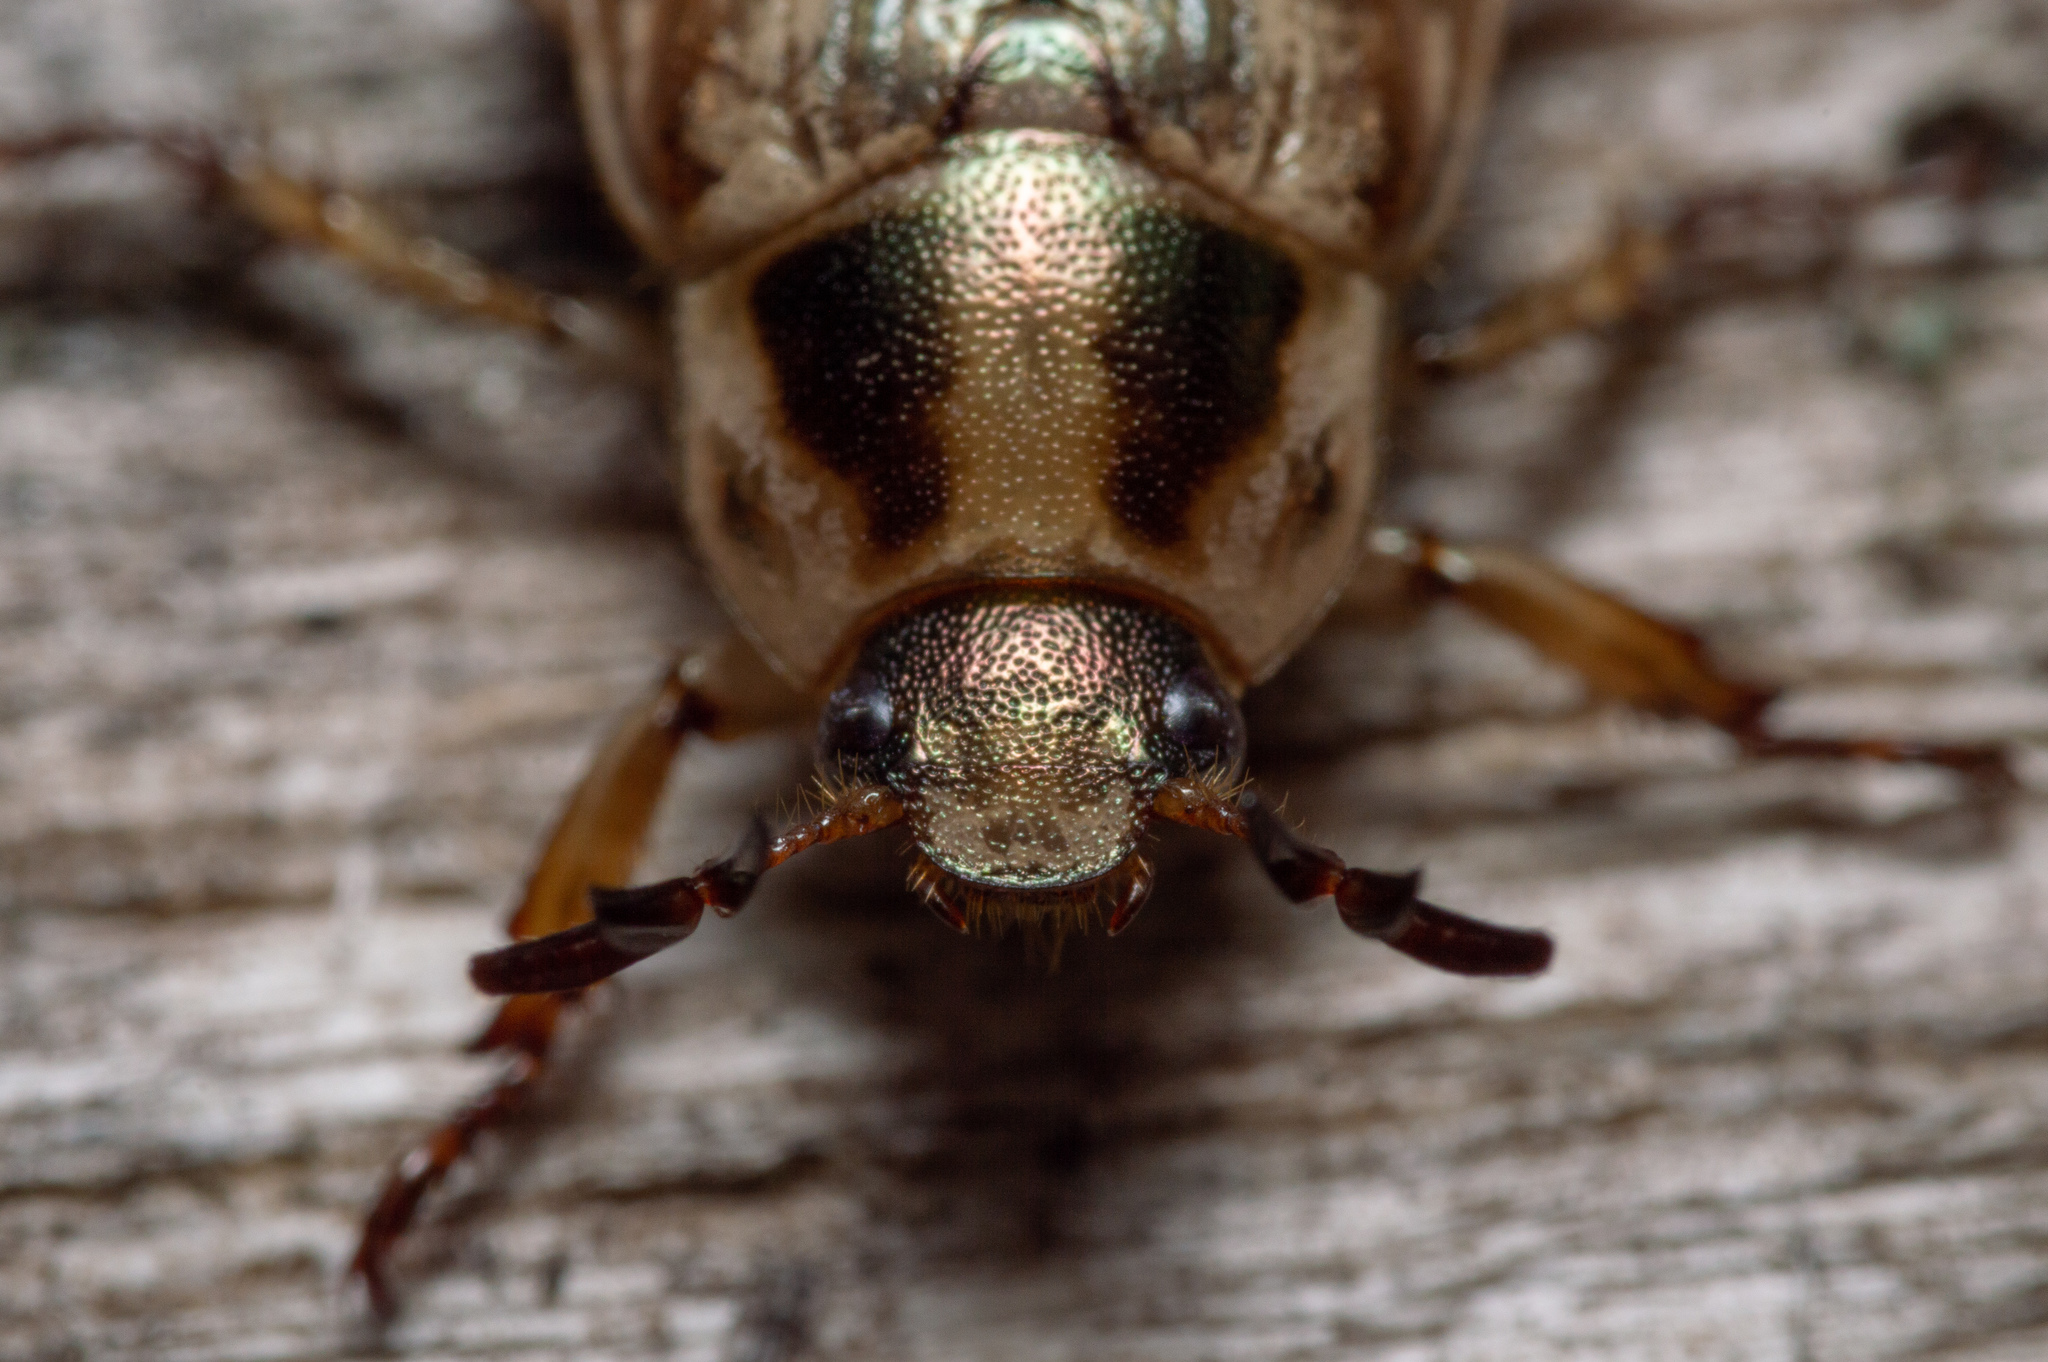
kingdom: Animalia
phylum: Arthropoda
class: Insecta
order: Coleoptera
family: Scarabaeidae
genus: Exomala
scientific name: Exomala orientalis
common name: Oriental beetle
